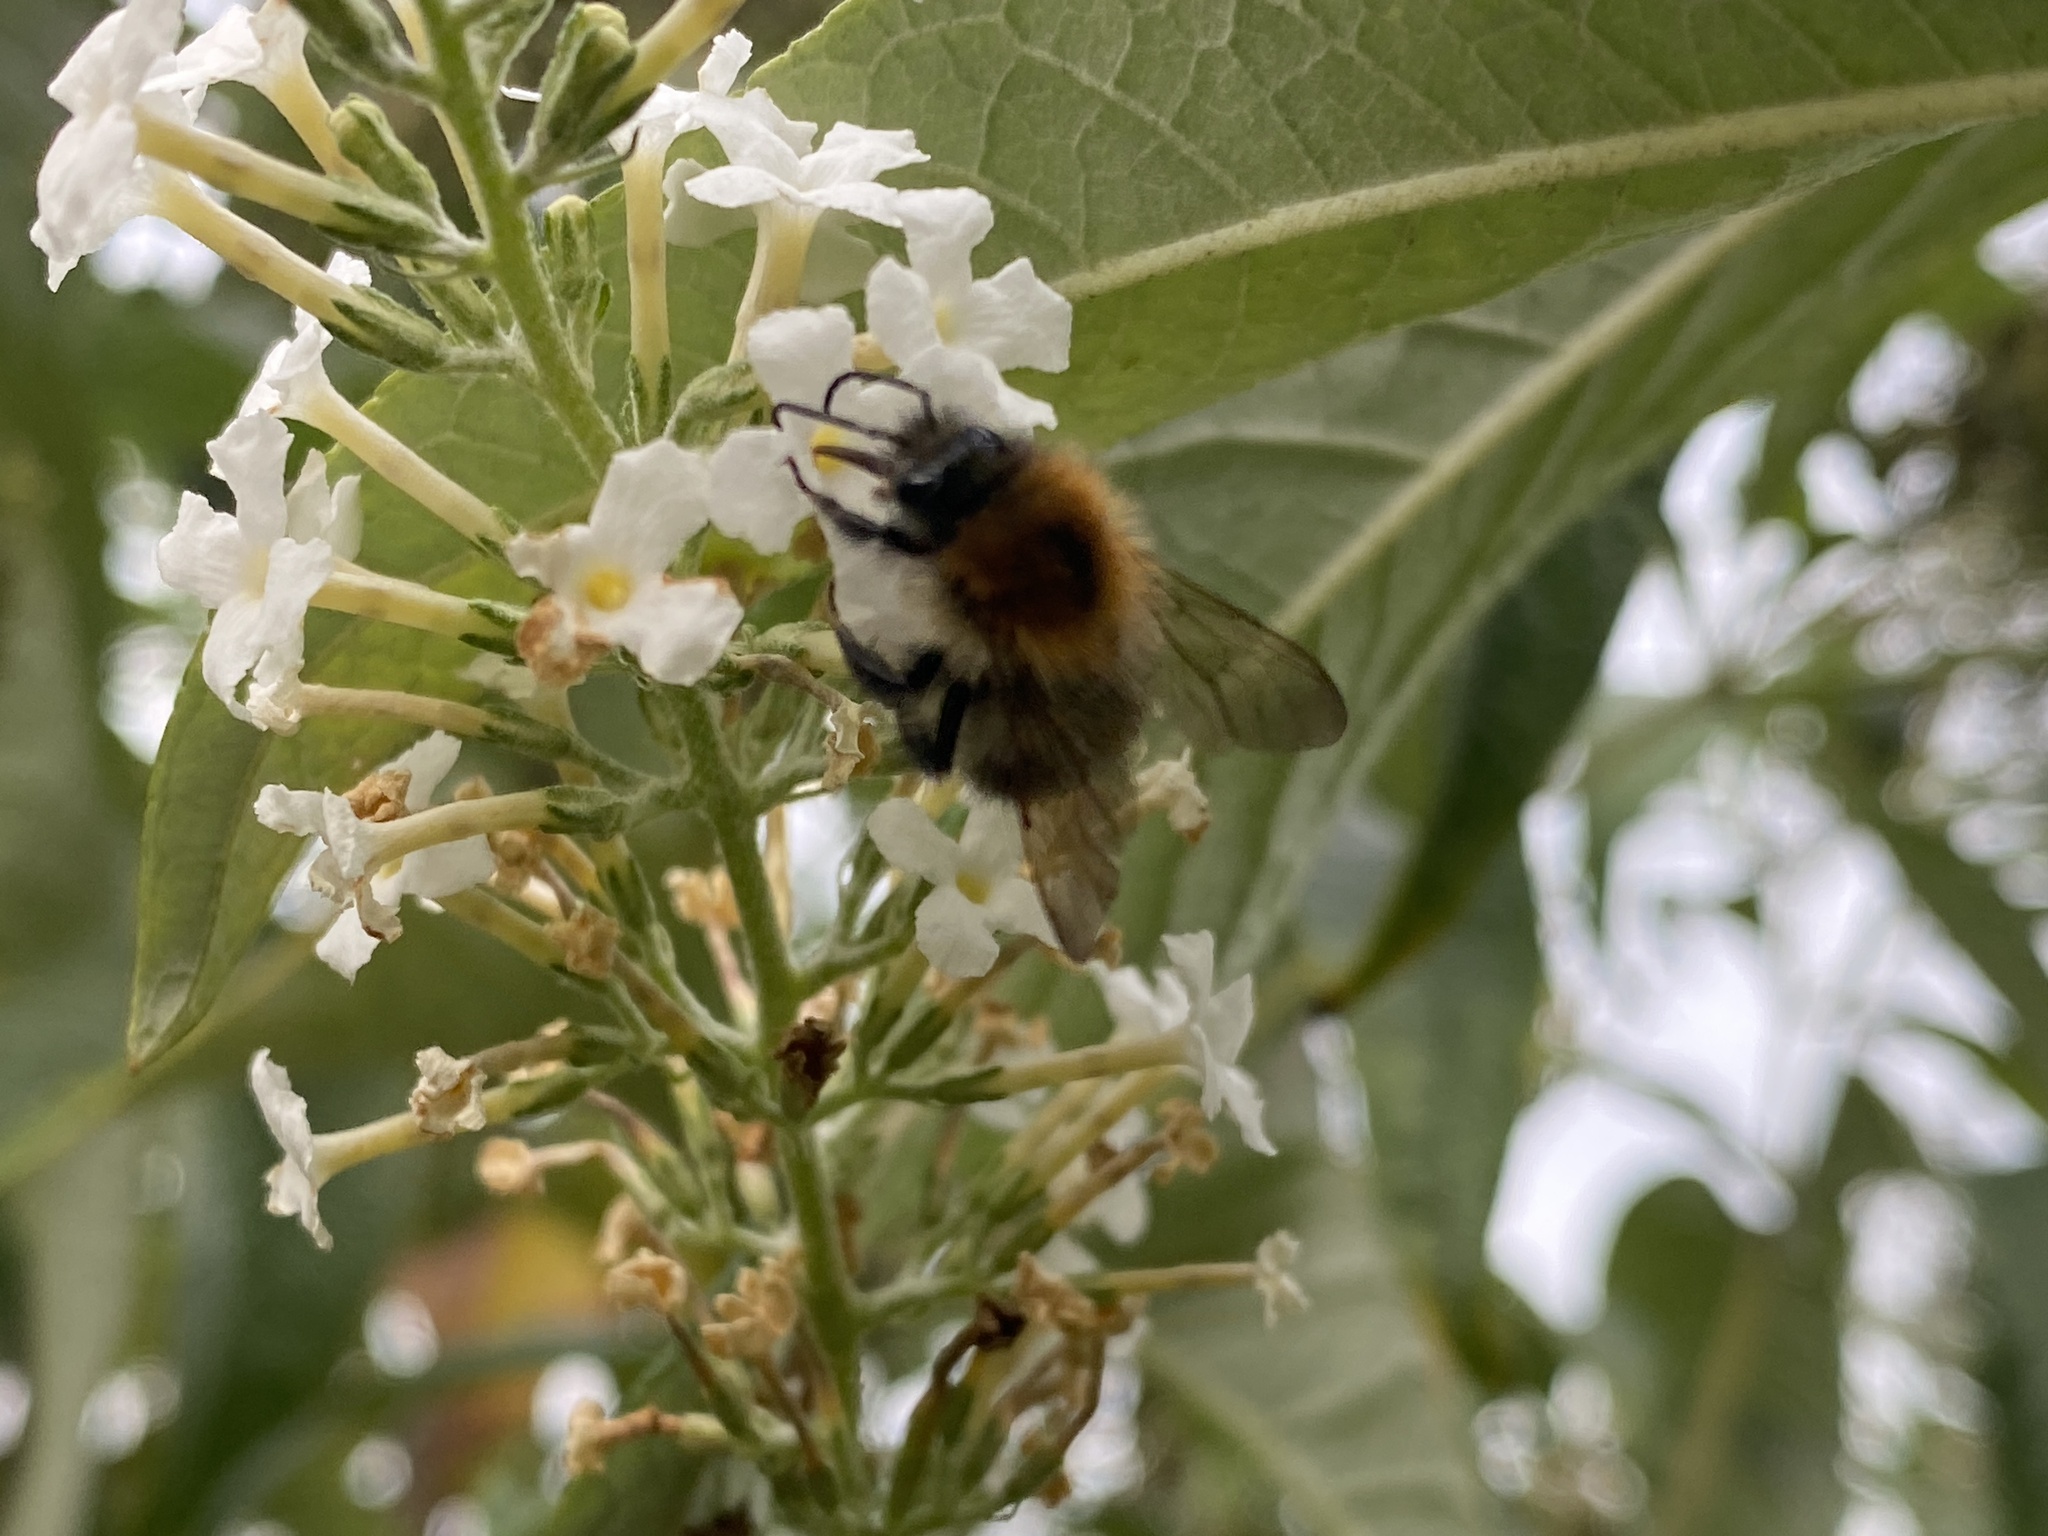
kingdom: Animalia
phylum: Arthropoda
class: Insecta
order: Hymenoptera
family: Apidae
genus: Bombus
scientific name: Bombus pascuorum
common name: Common carder bee
